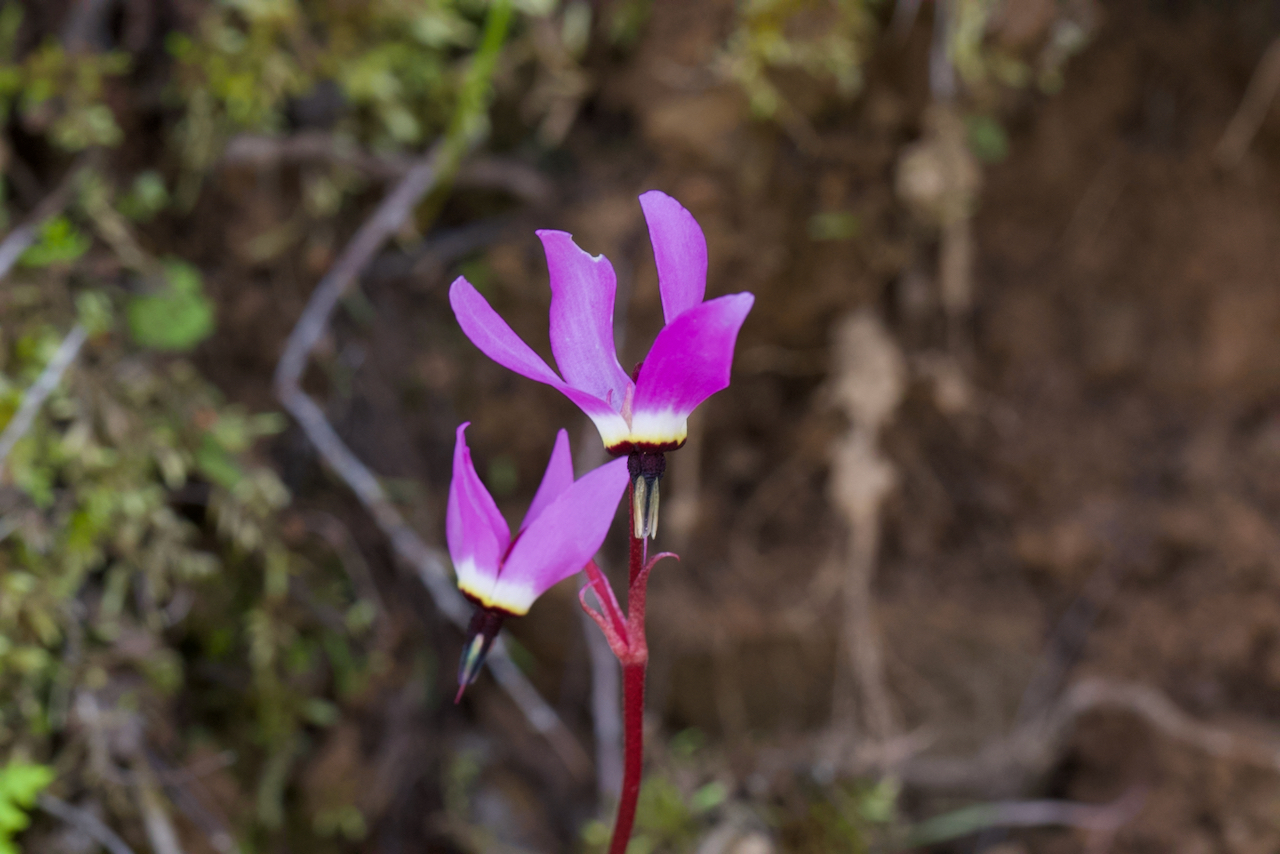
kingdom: Plantae
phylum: Tracheophyta
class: Magnoliopsida
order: Ericales
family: Primulaceae
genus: Dodecatheon
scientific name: Dodecatheon hendersonii
